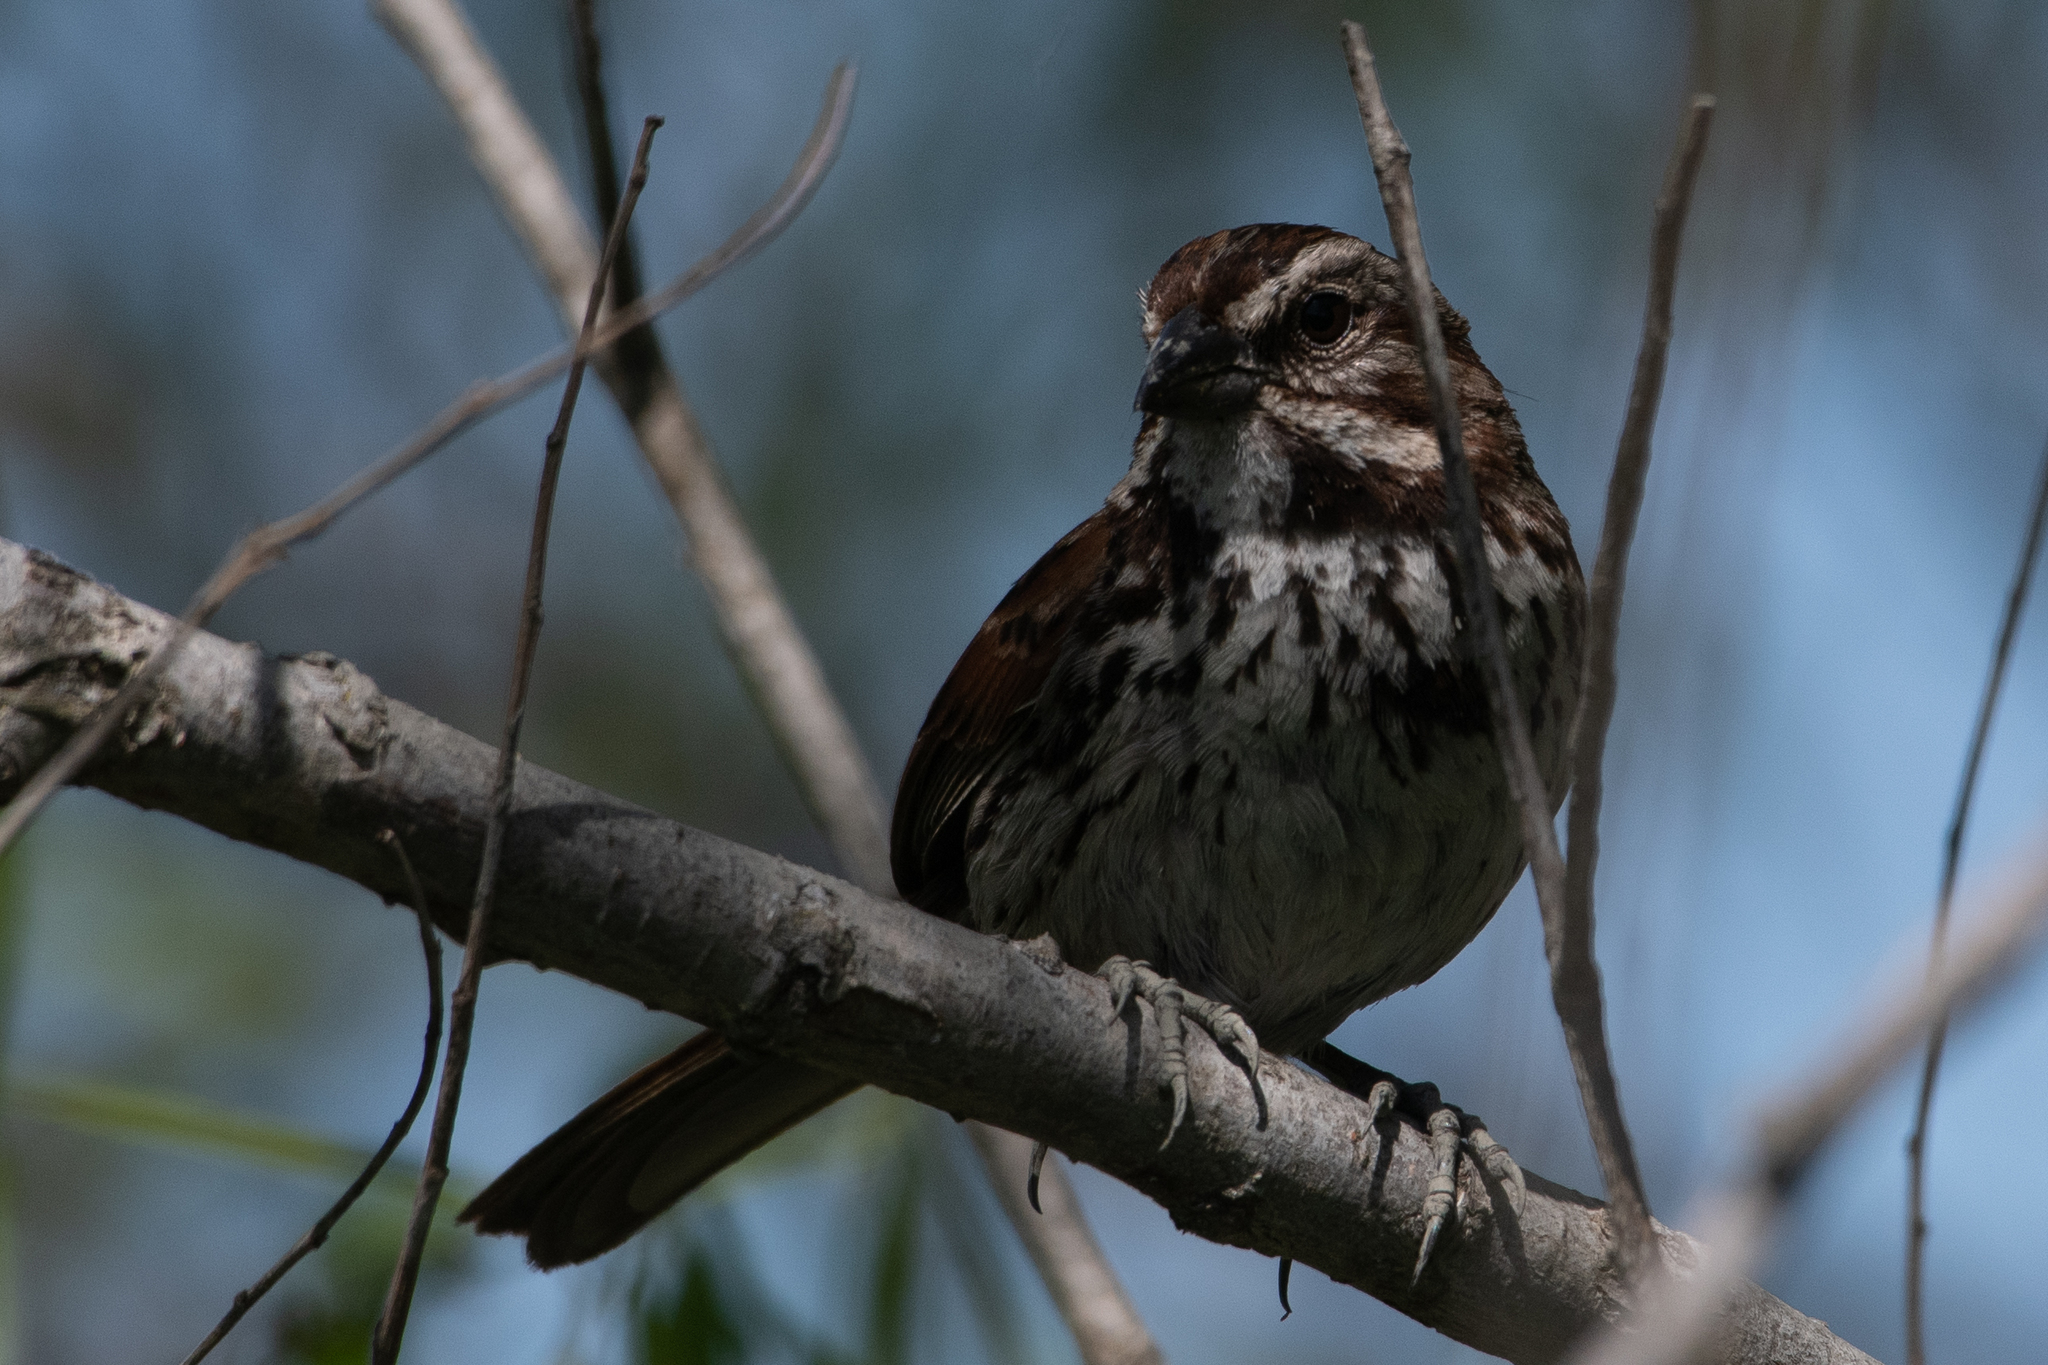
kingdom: Animalia
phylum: Chordata
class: Aves
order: Passeriformes
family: Passerellidae
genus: Melospiza
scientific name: Melospiza melodia
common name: Song sparrow
